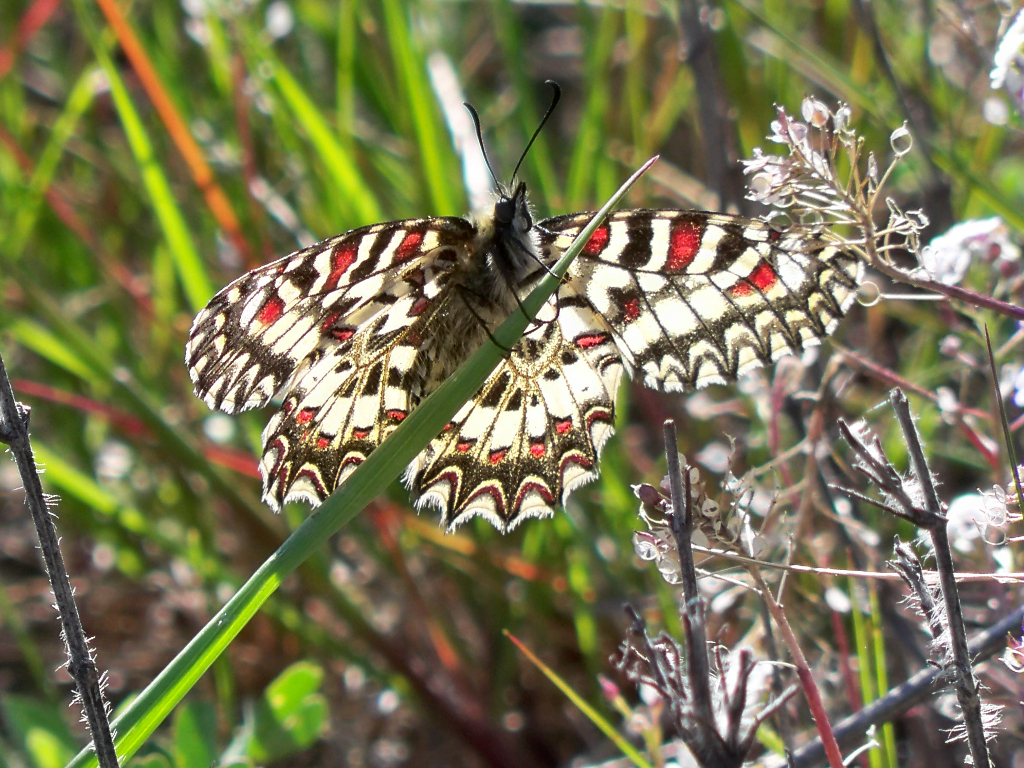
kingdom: Animalia
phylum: Arthropoda
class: Insecta
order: Lepidoptera
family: Papilionidae
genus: Zerynthia
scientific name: Zerynthia rumina
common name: Spanish festoon
